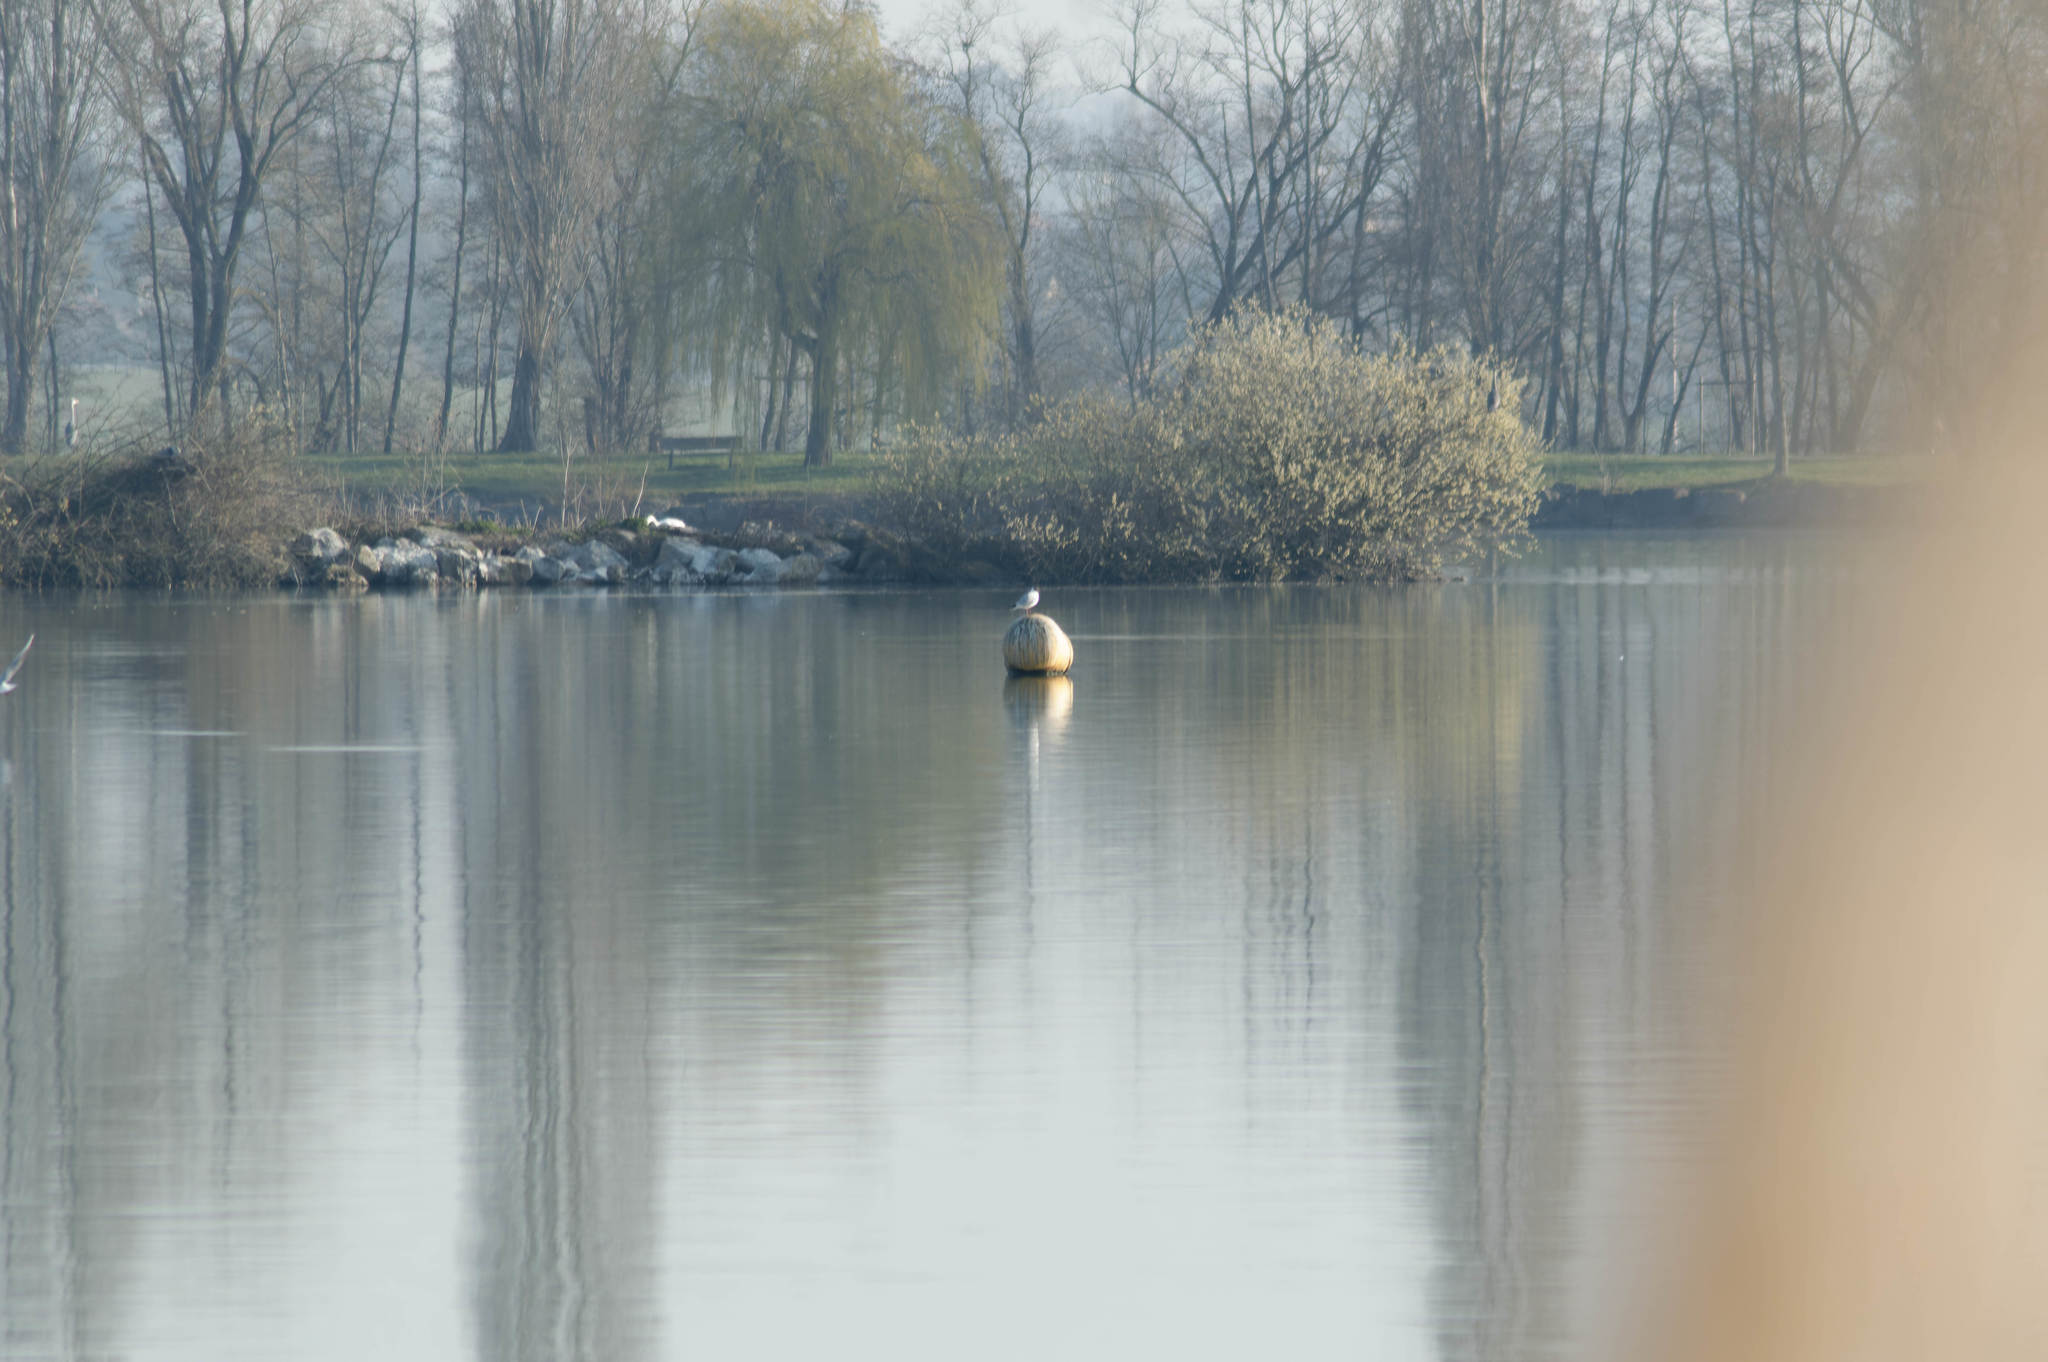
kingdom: Animalia
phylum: Chordata
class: Aves
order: Charadriiformes
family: Laridae
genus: Chroicocephalus
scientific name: Chroicocephalus ridibundus
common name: Black-headed gull
